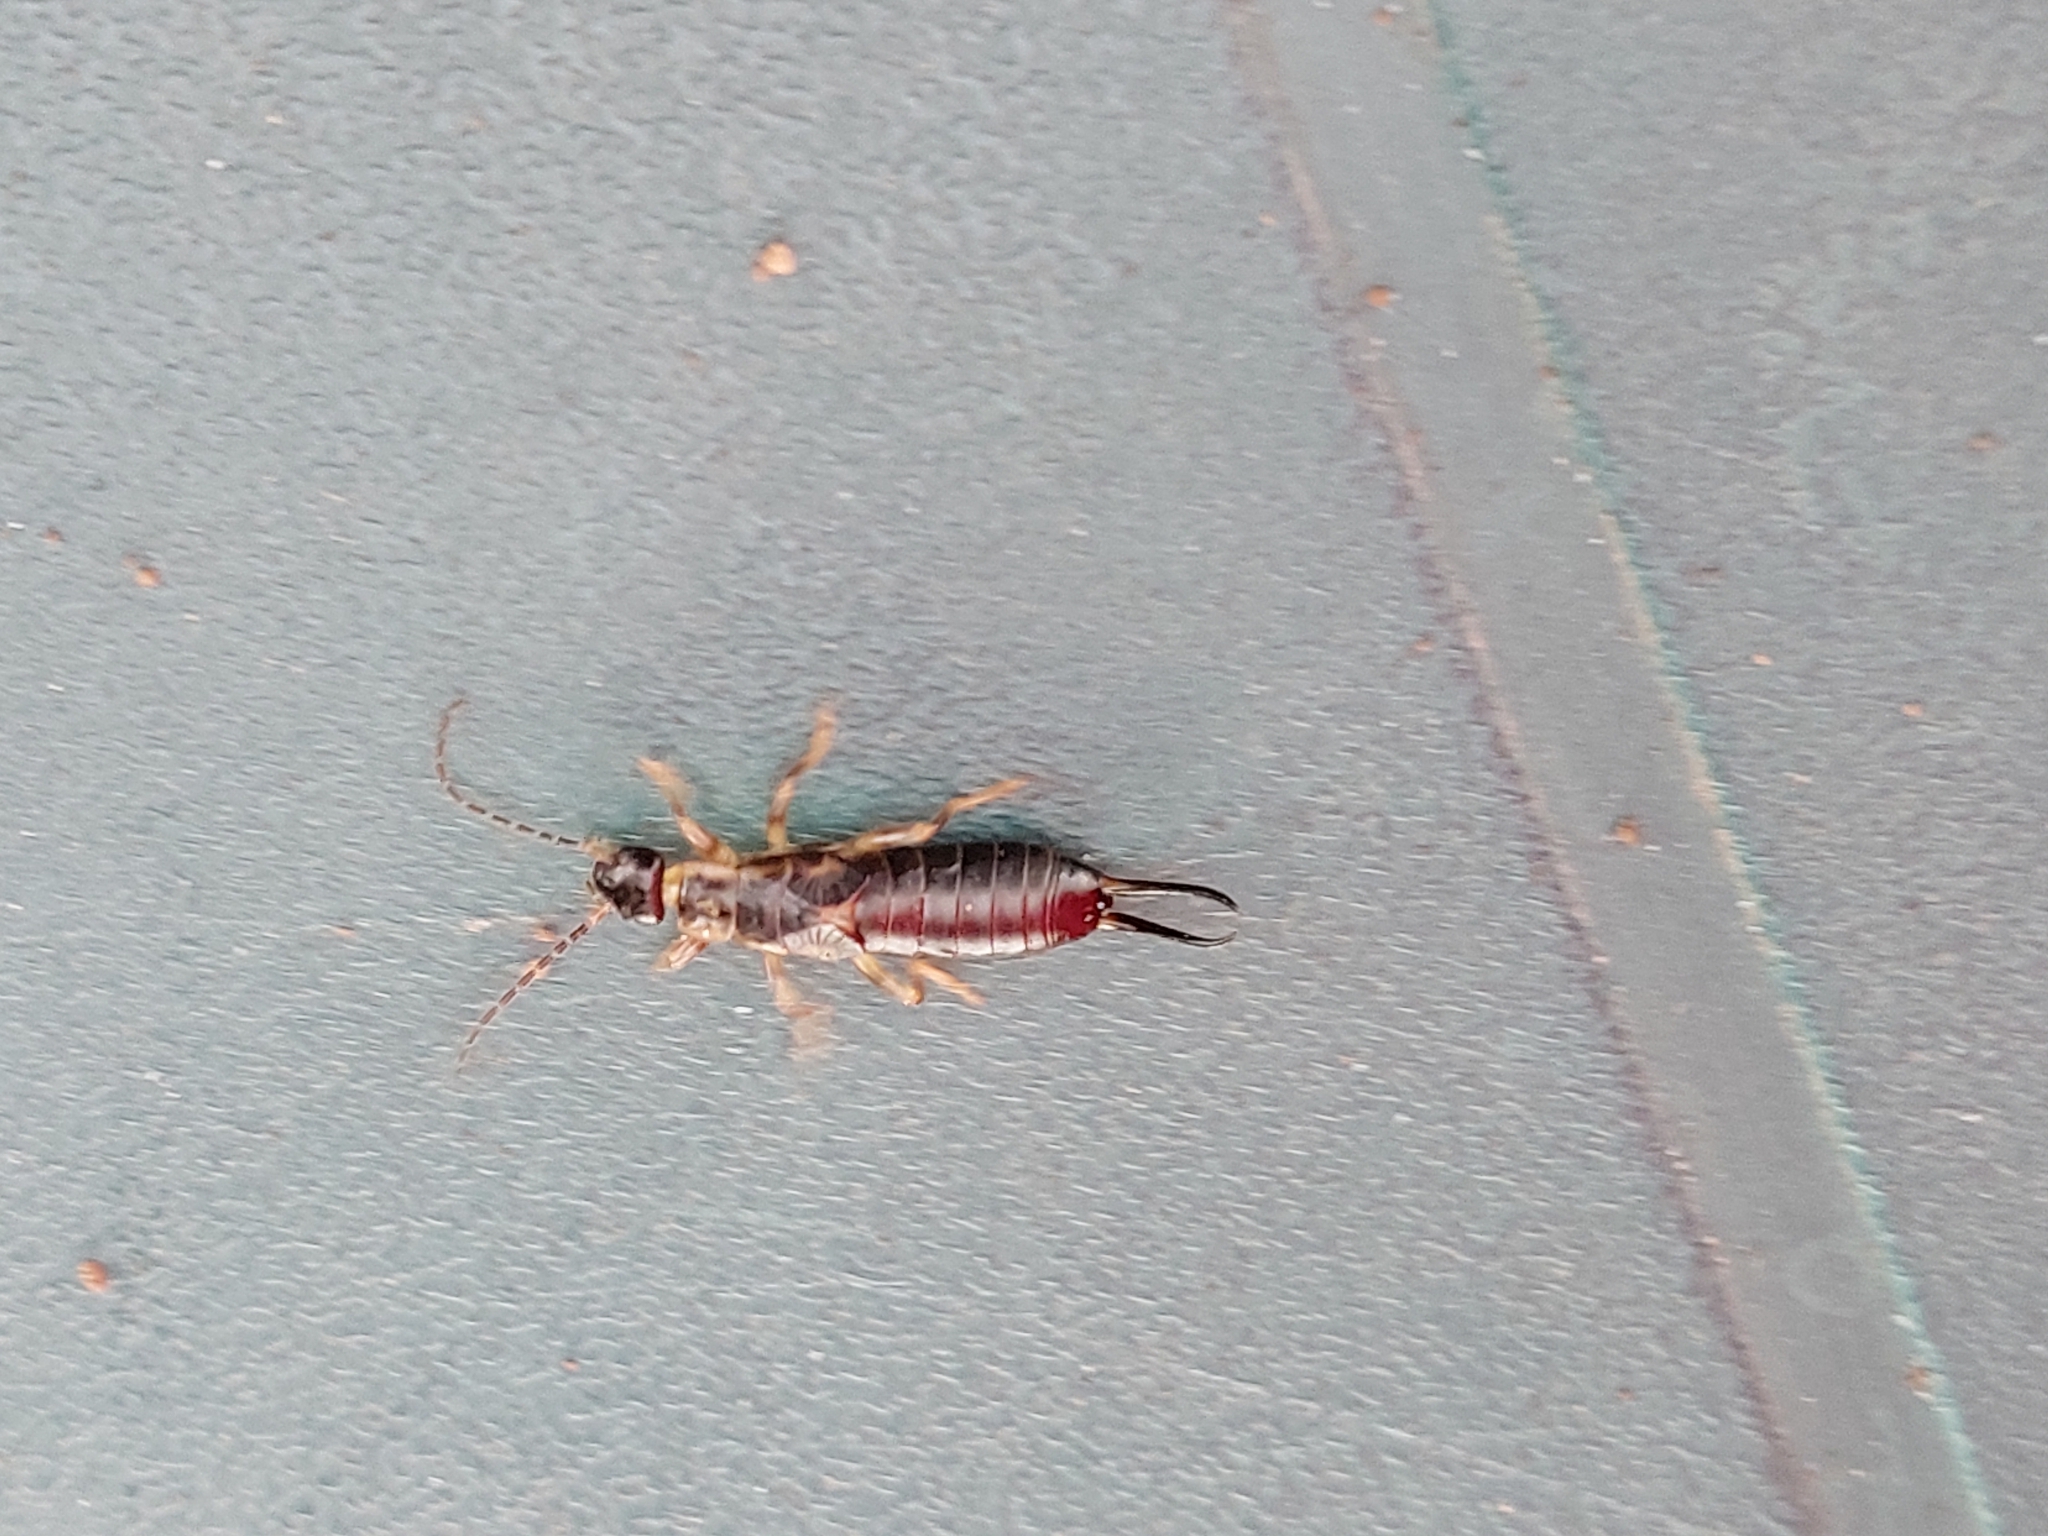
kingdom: Animalia
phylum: Arthropoda
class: Insecta
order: Dermaptera
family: Forficulidae
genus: Forficula
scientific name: Forficula
